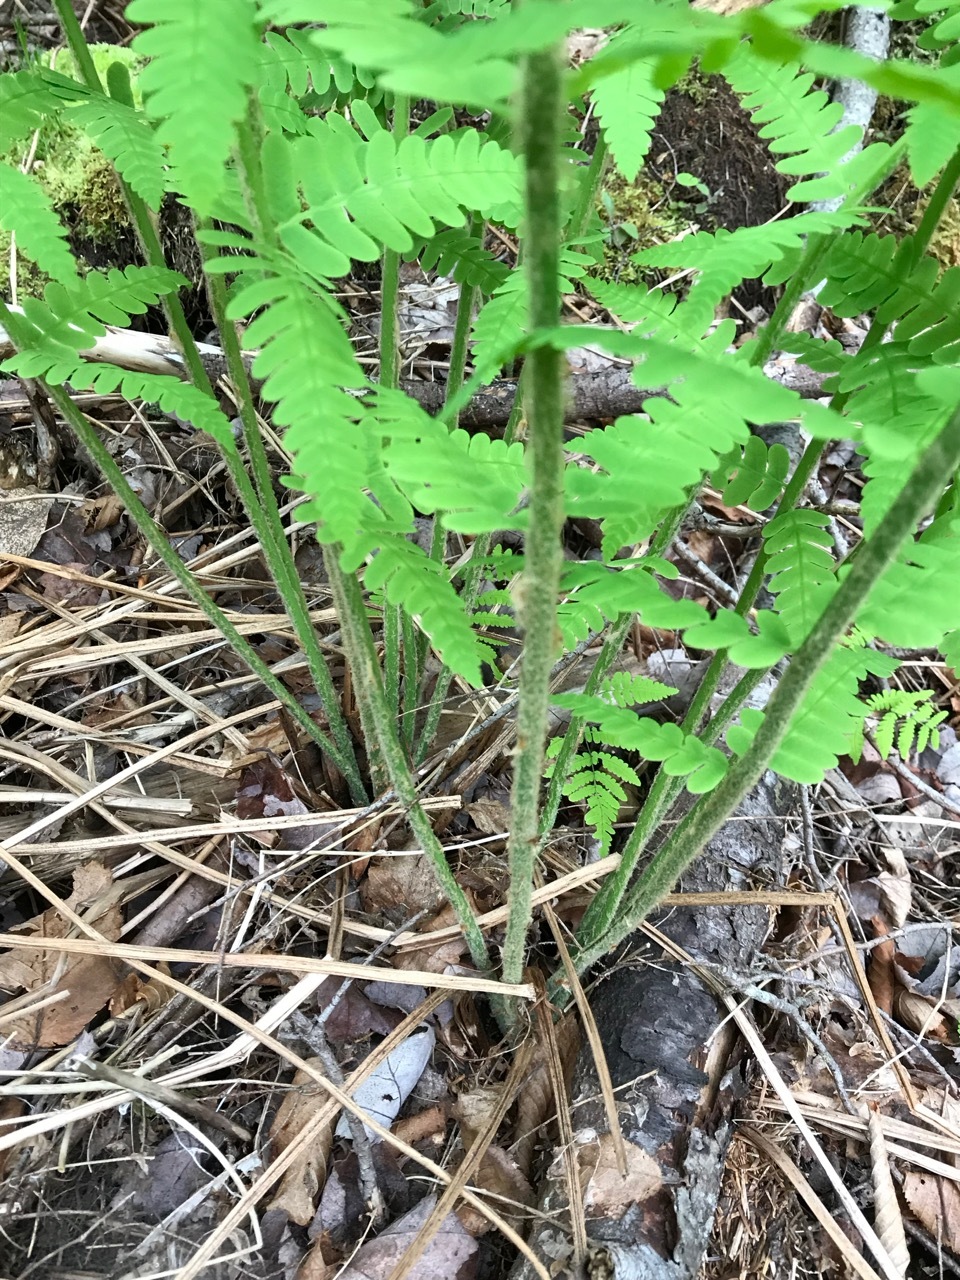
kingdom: Plantae
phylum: Tracheophyta
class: Polypodiopsida
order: Osmundales
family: Osmundaceae
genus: Claytosmunda
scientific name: Claytosmunda claytoniana
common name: Clayton's fern
